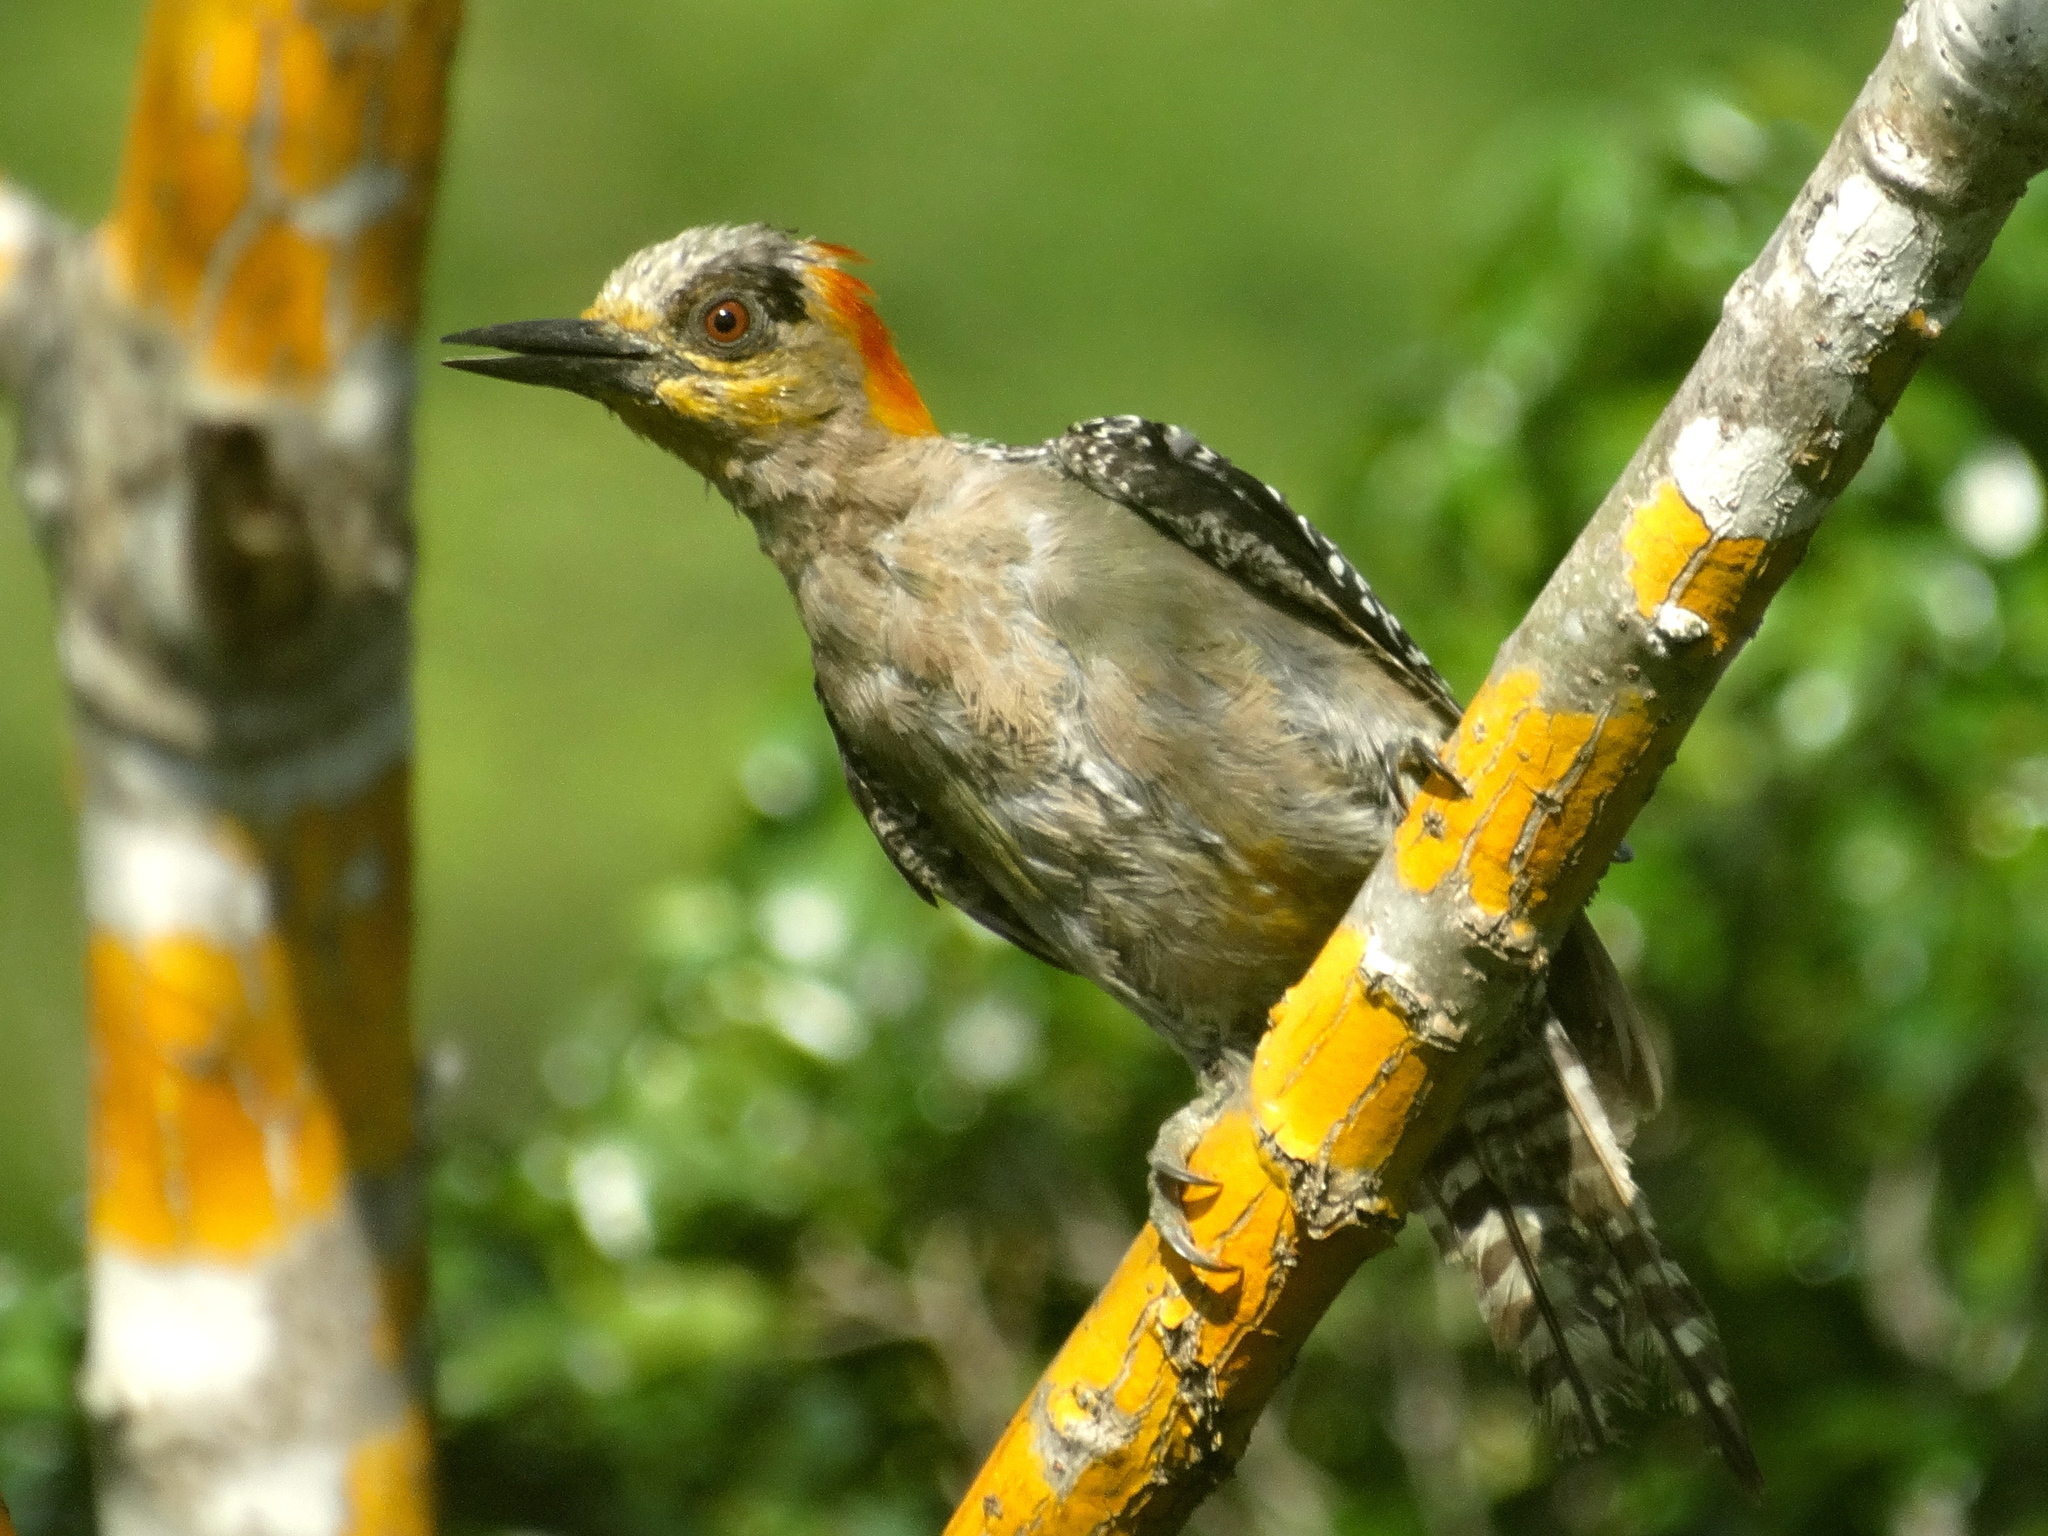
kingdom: Animalia
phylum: Chordata
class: Aves
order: Piciformes
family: Picidae
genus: Melanerpes
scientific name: Melanerpes chrysogenys
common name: Golden-cheeked woodpecker
